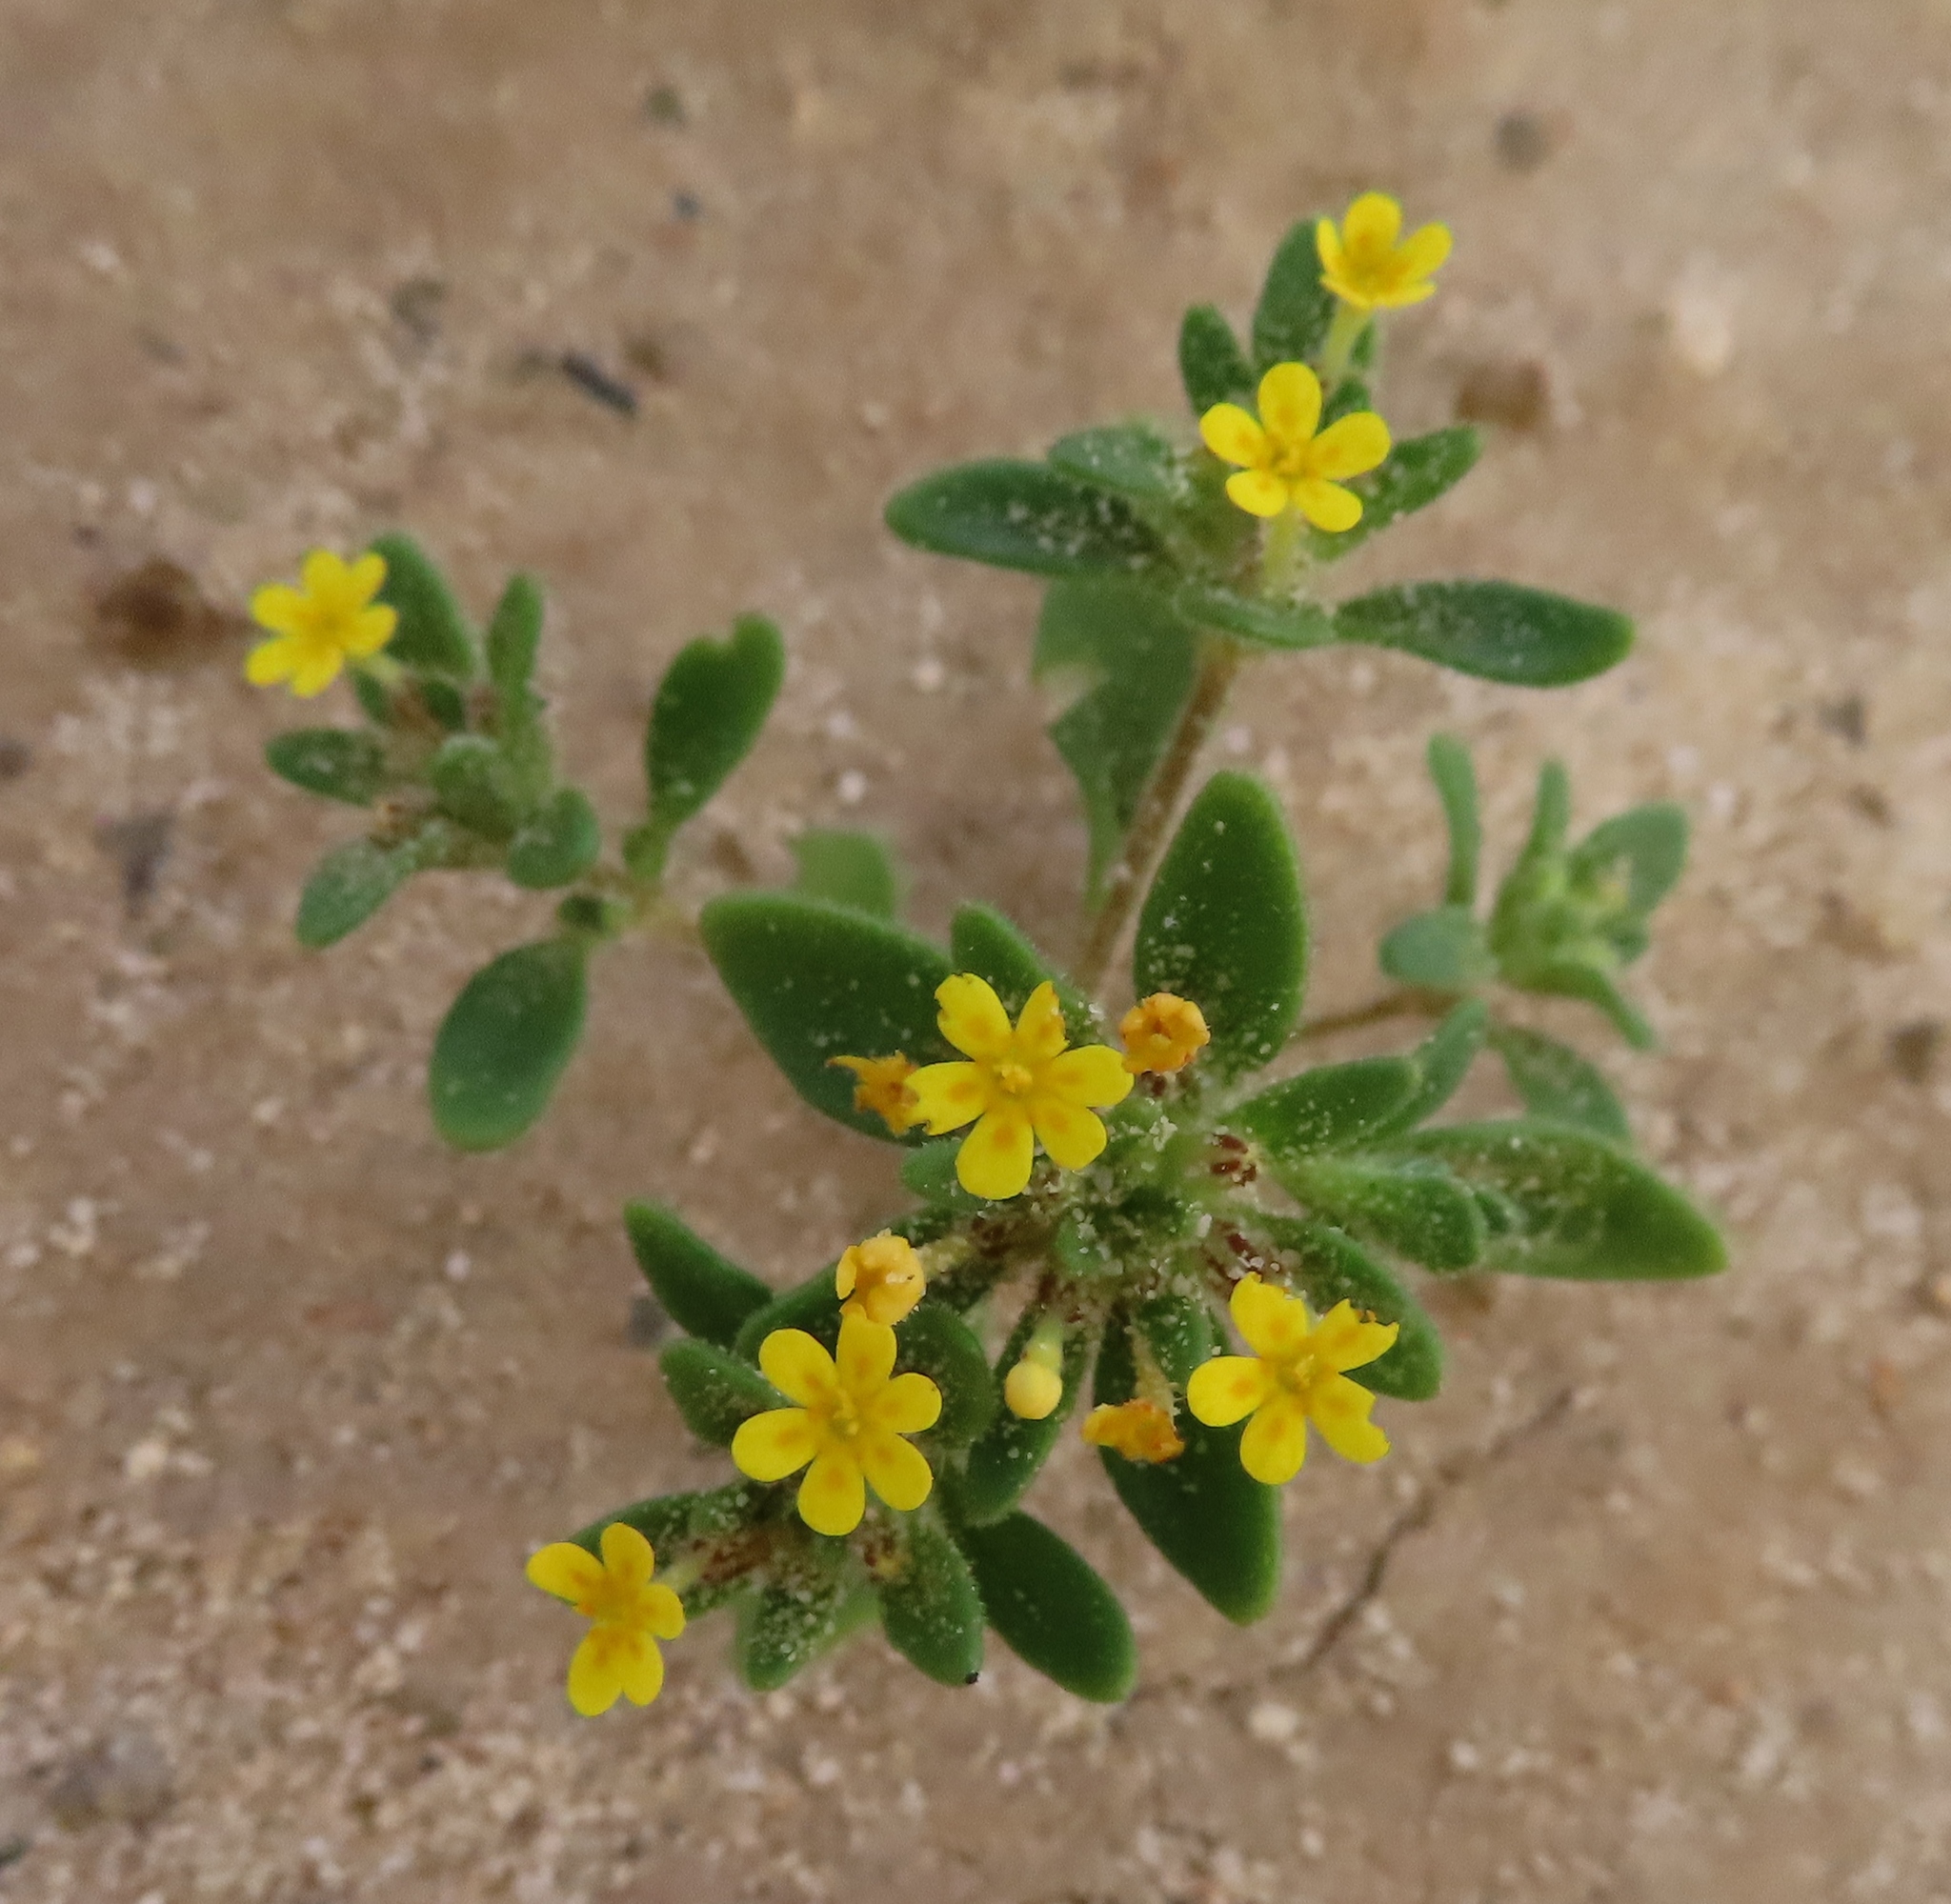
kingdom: Plantae
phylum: Tracheophyta
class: Magnoliopsida
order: Lamiales
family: Scrophulariaceae
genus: Zaluzianskya
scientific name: Zaluzianskya lanigera
